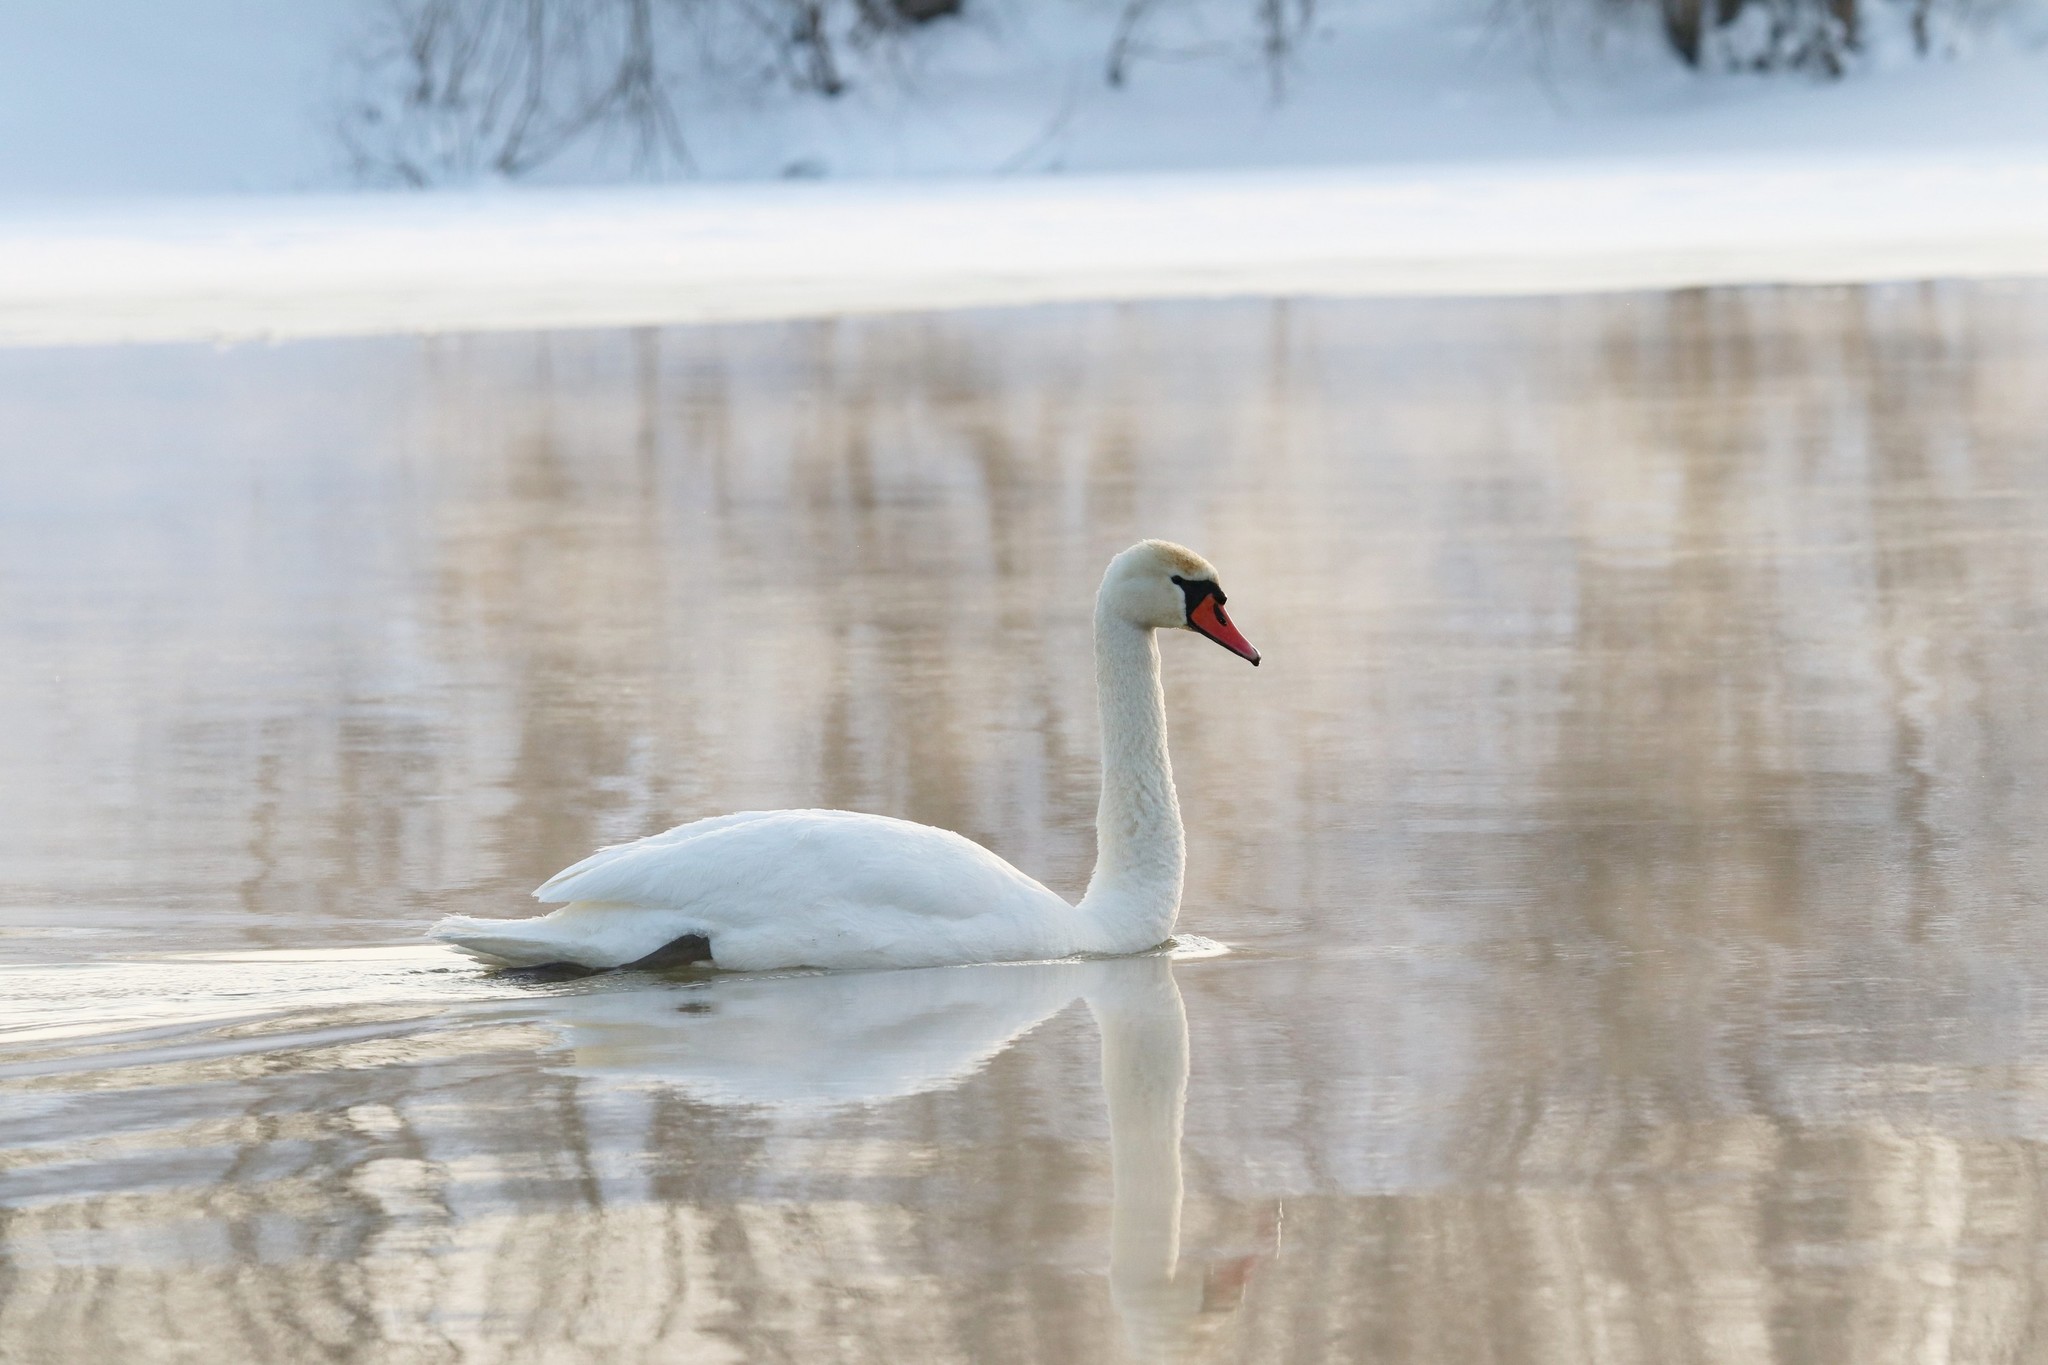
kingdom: Animalia
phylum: Chordata
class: Aves
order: Anseriformes
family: Anatidae
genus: Cygnus
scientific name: Cygnus olor
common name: Mute swan
